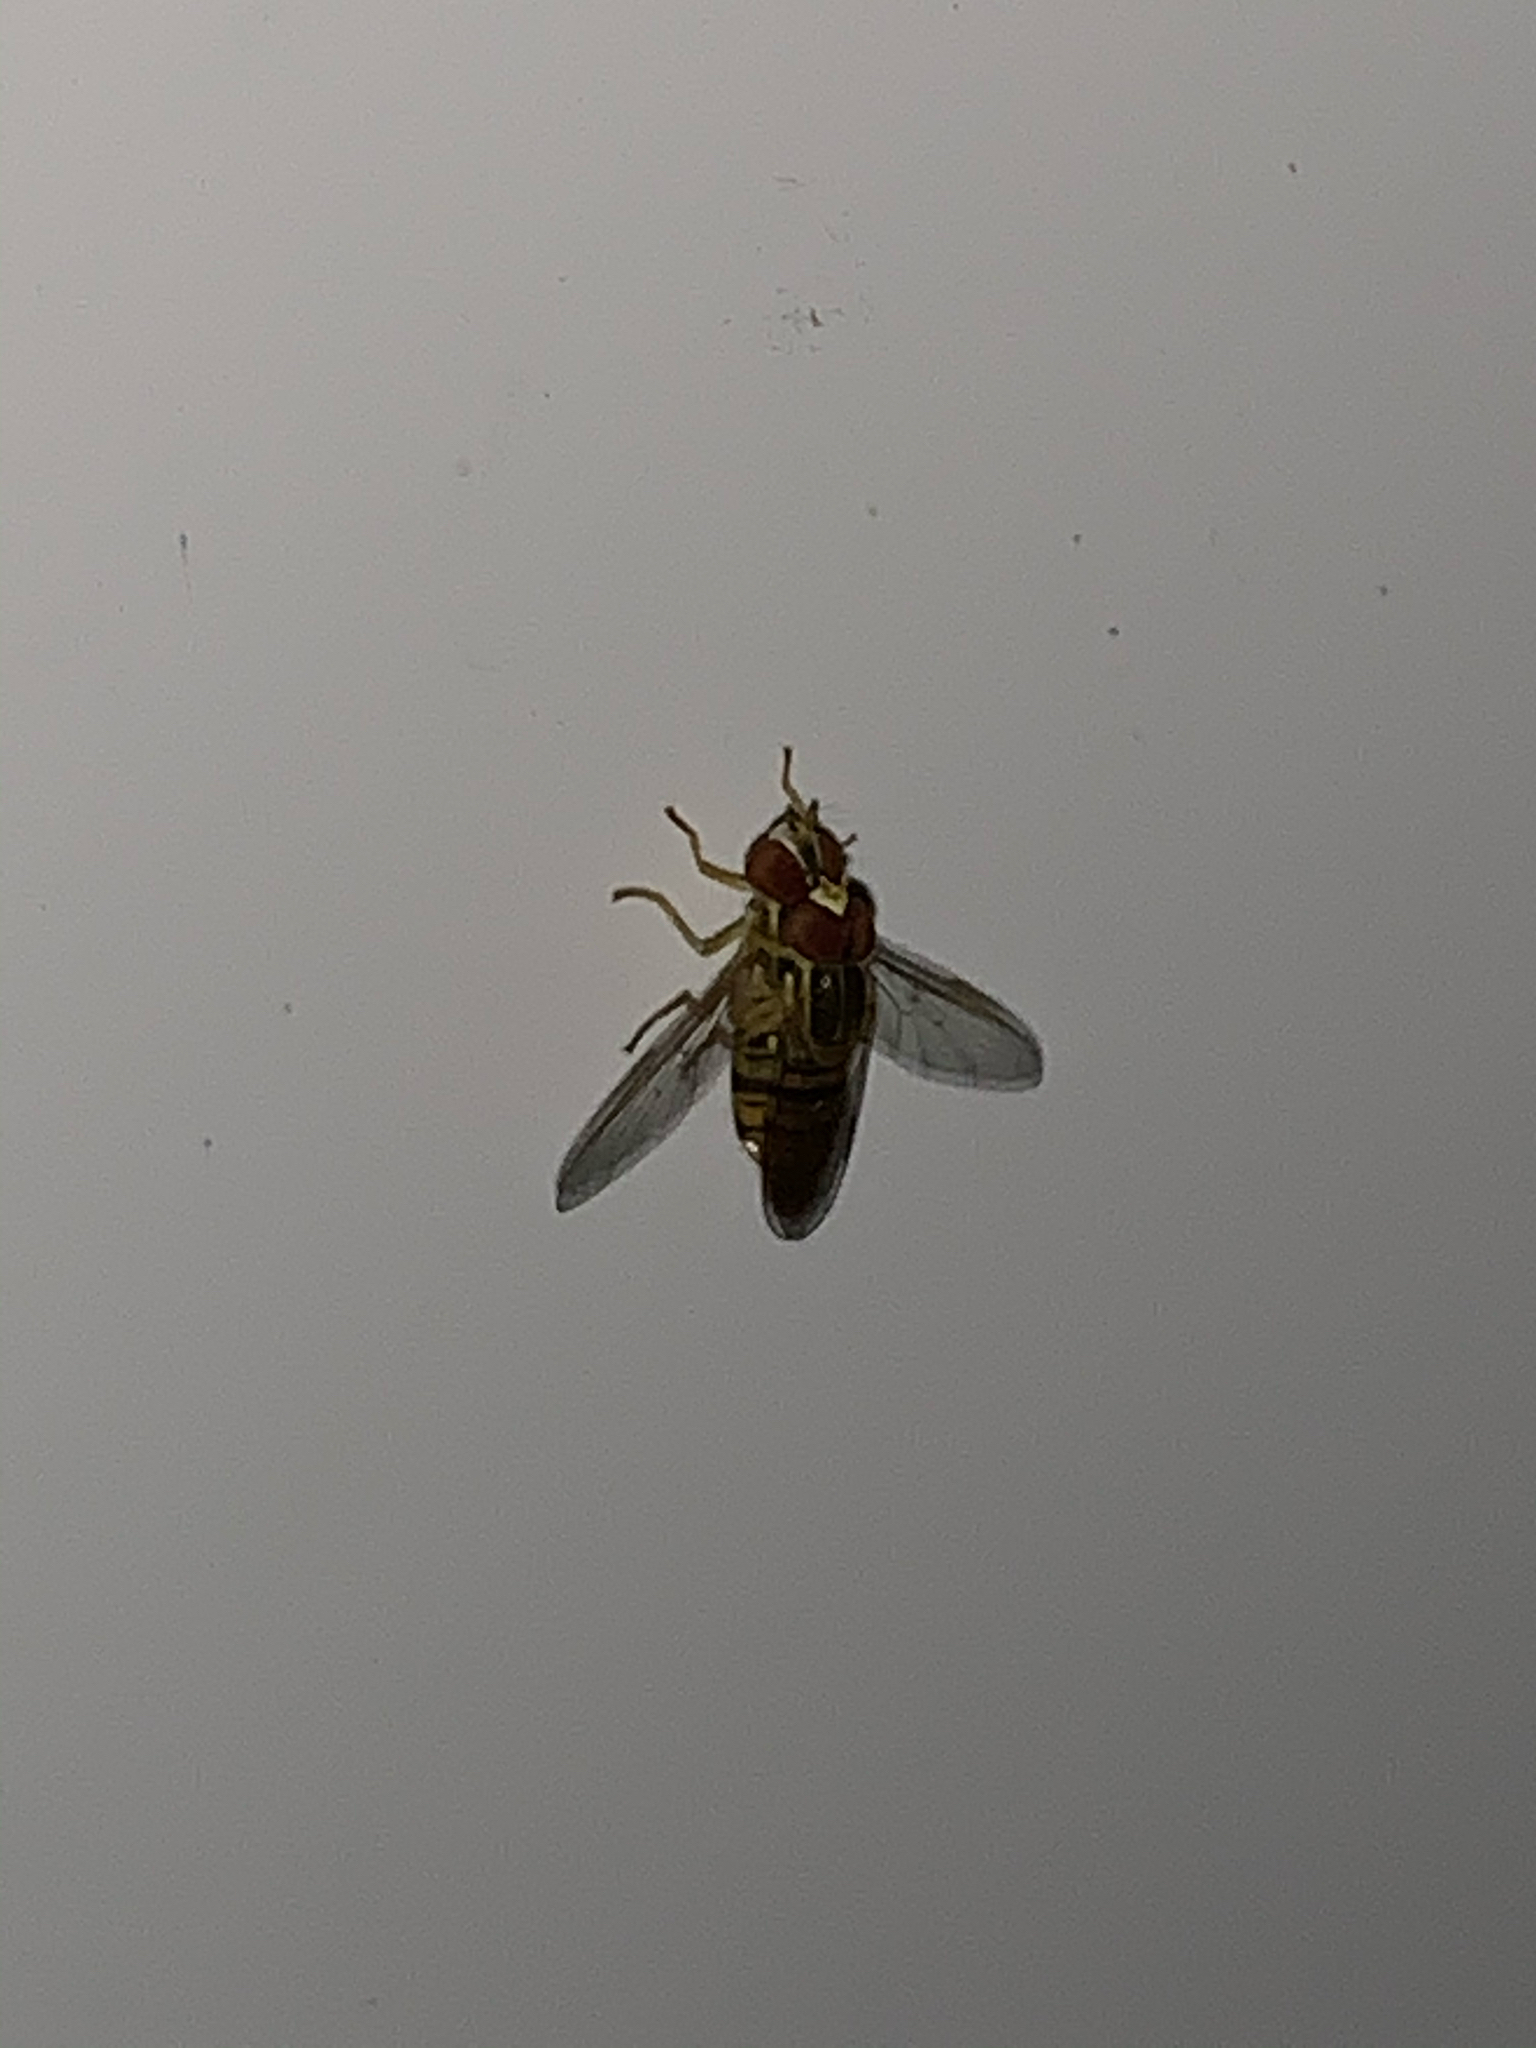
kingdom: Animalia
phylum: Arthropoda
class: Insecta
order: Diptera
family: Syrphidae
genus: Toxomerus
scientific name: Toxomerus politus
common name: Maize calligrapher
